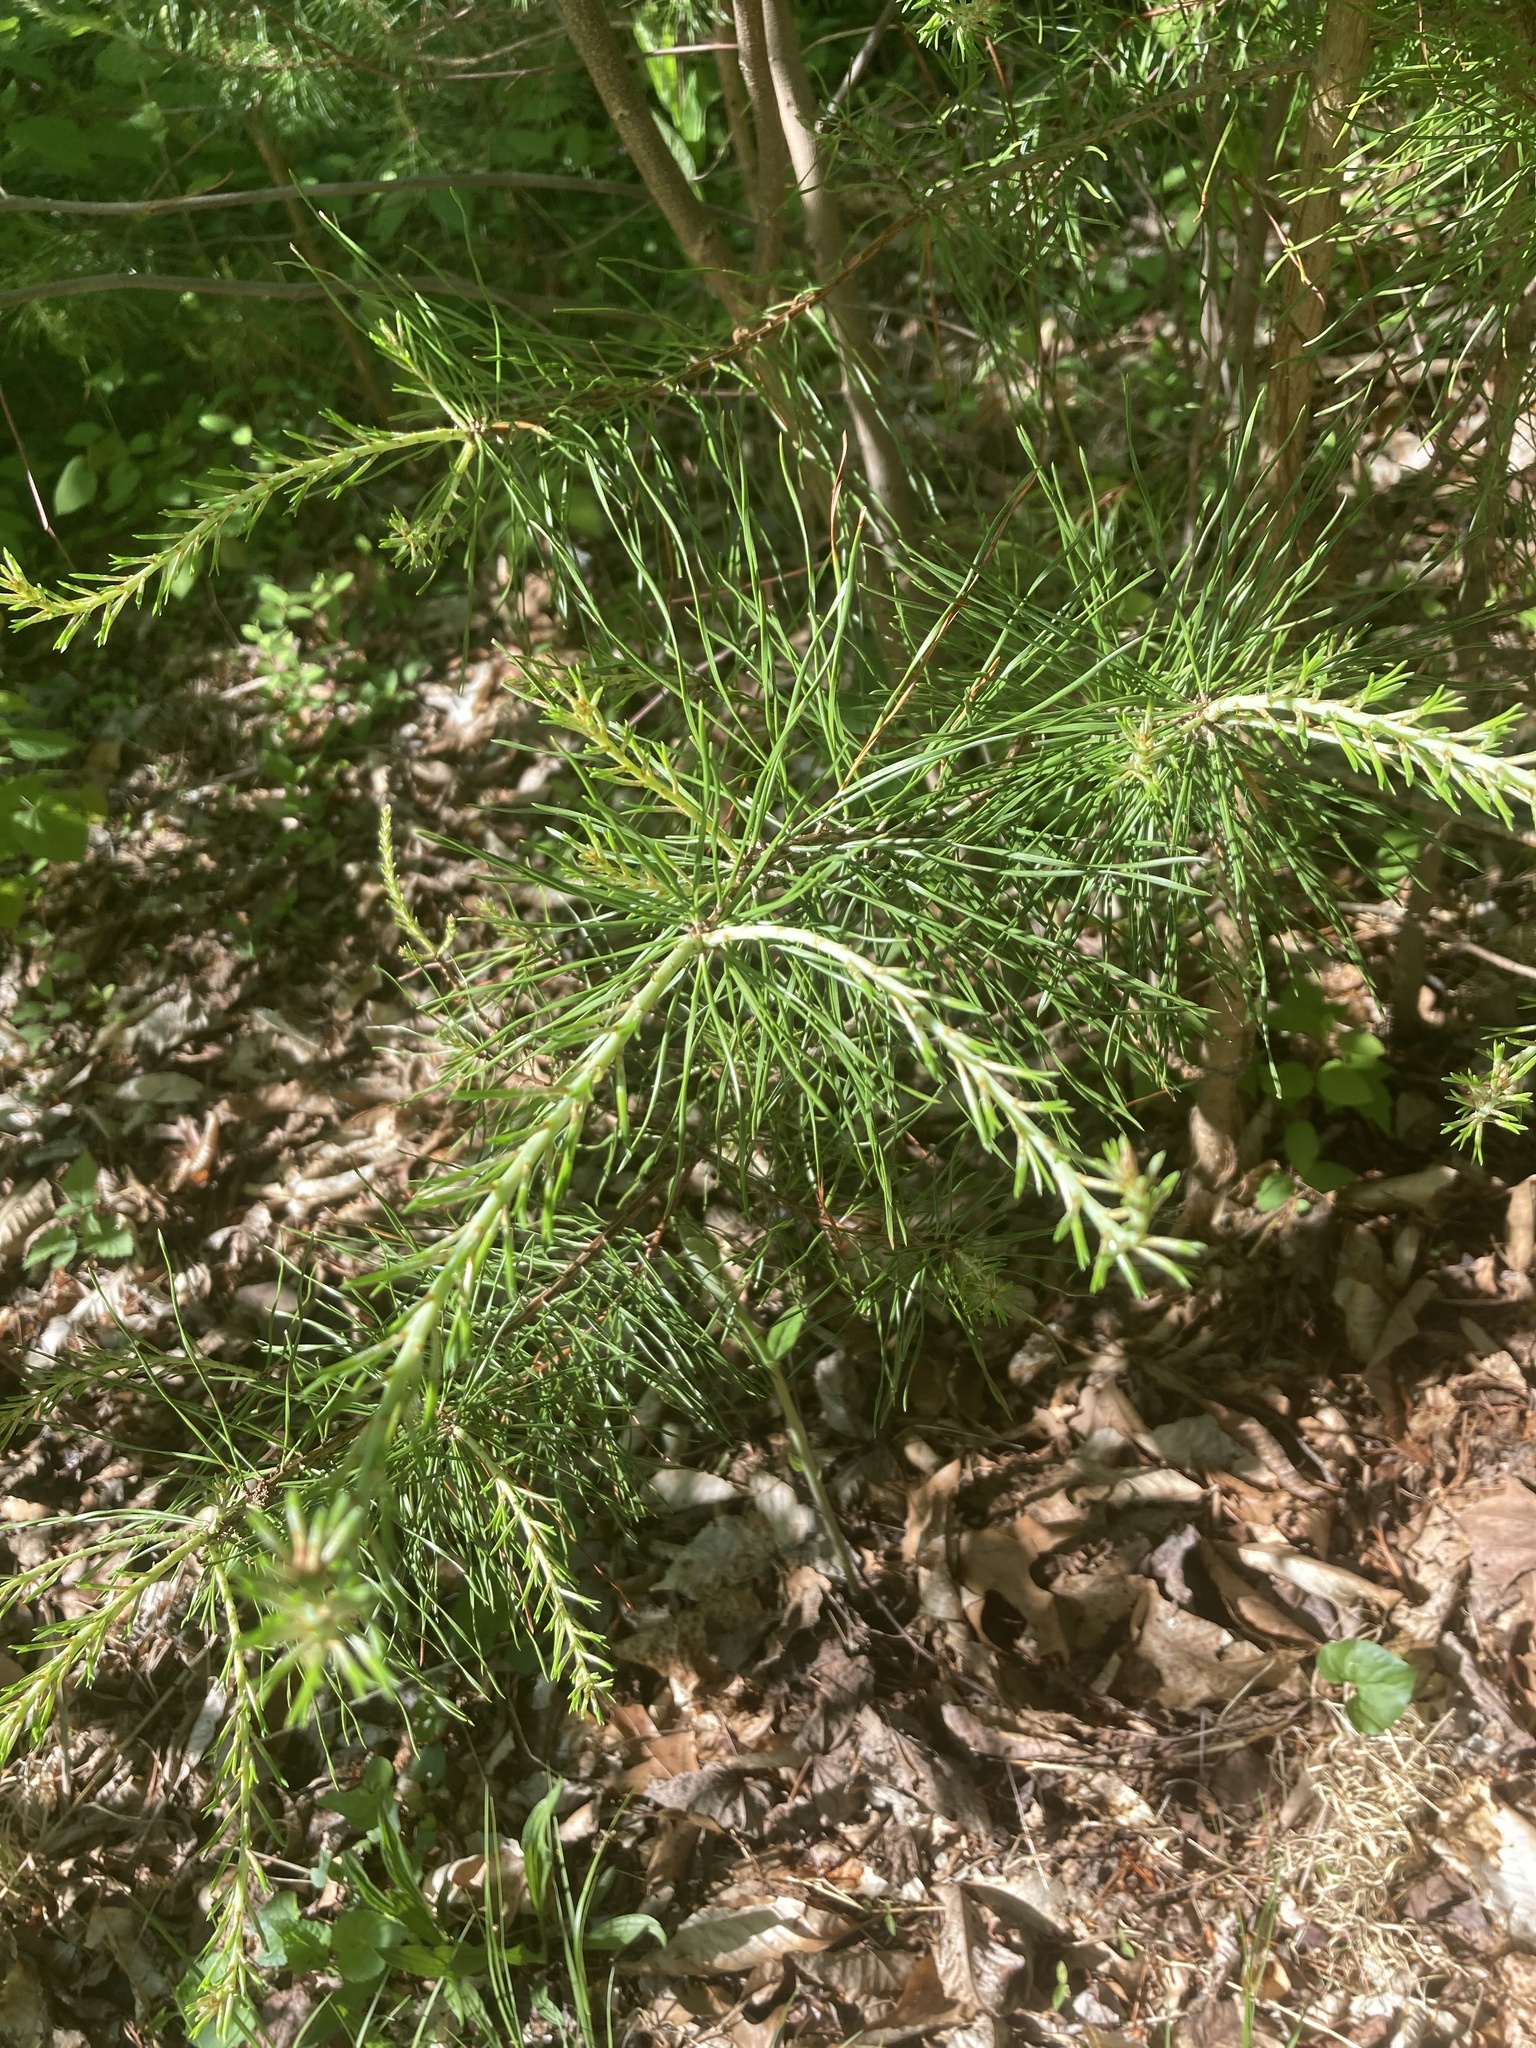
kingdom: Plantae
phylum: Tracheophyta
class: Pinopsida
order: Pinales
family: Pinaceae
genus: Pinus
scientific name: Pinus virginiana
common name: Scrub pine
